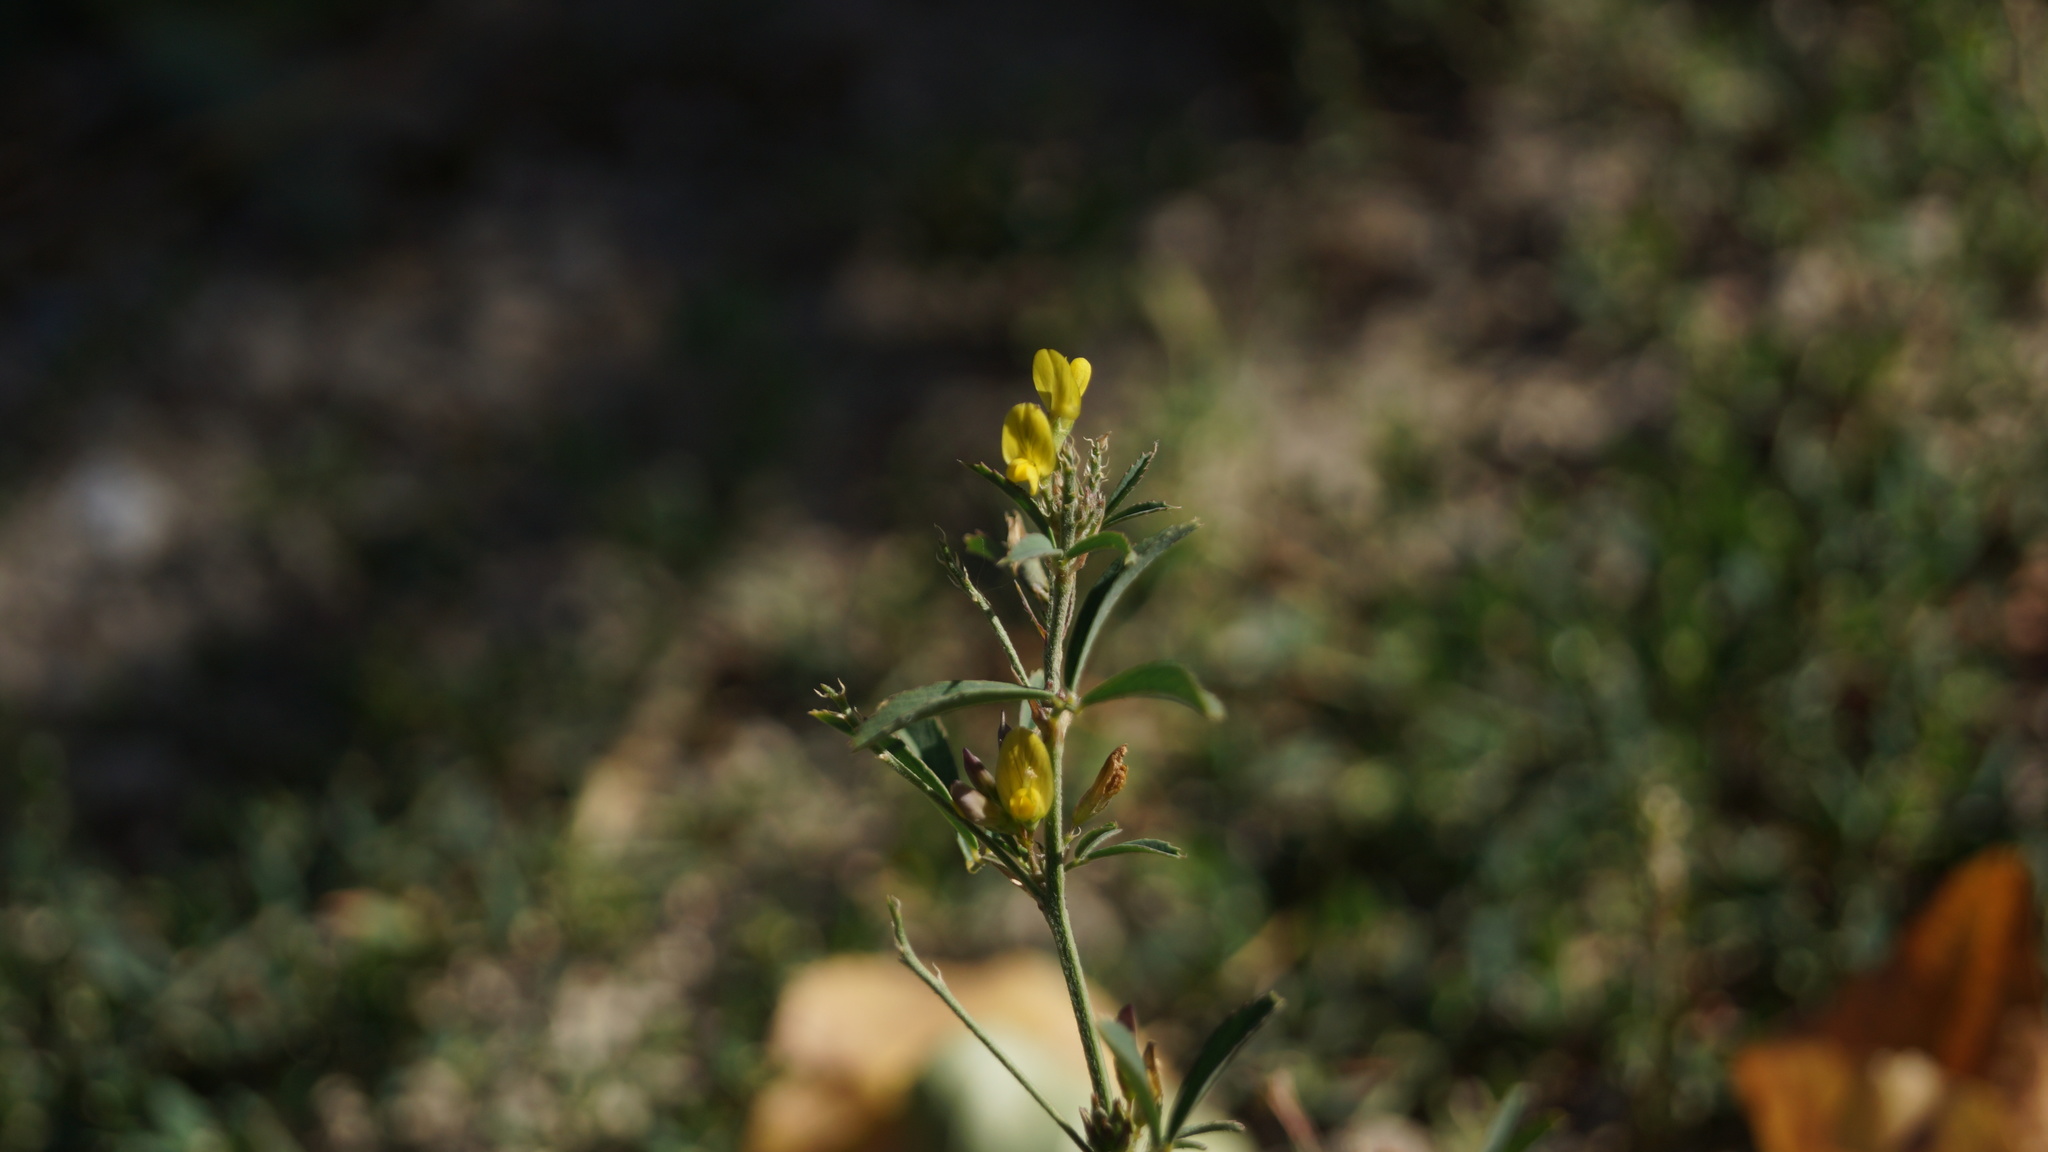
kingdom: Plantae
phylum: Tracheophyta
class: Magnoliopsida
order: Fabales
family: Fabaceae
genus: Medicago
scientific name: Medicago falcata
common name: Sickle medick
